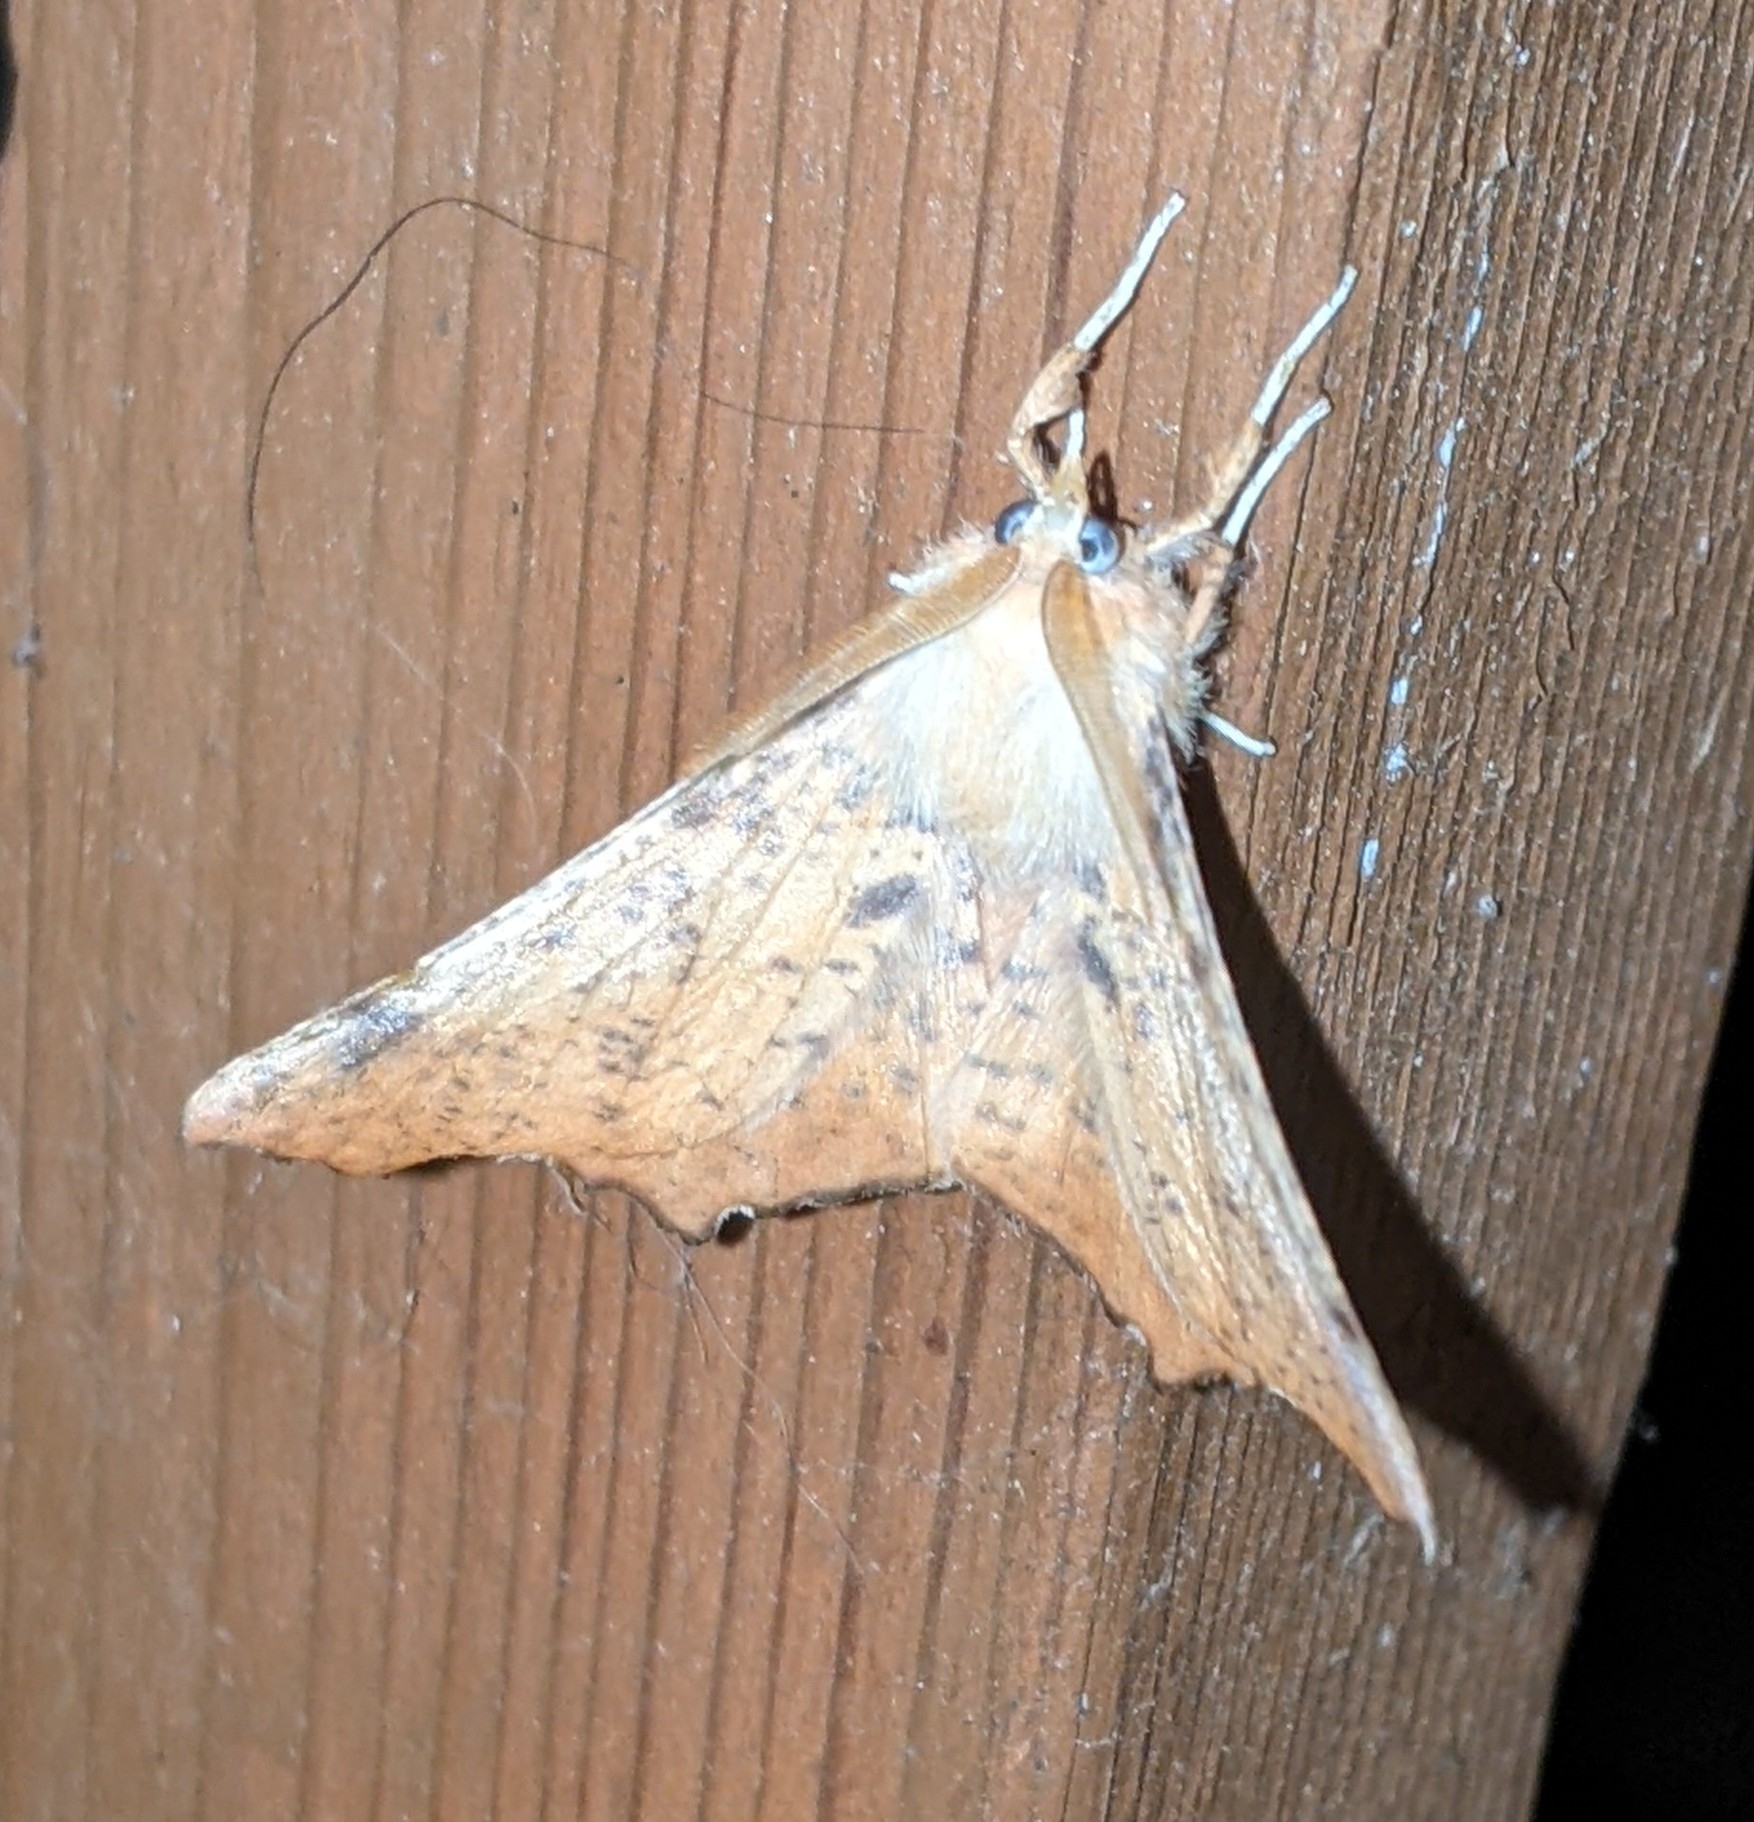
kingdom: Animalia
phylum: Arthropoda
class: Insecta
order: Lepidoptera
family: Geometridae
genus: Ennomos
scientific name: Ennomos magnaria
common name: Maple spanworm
